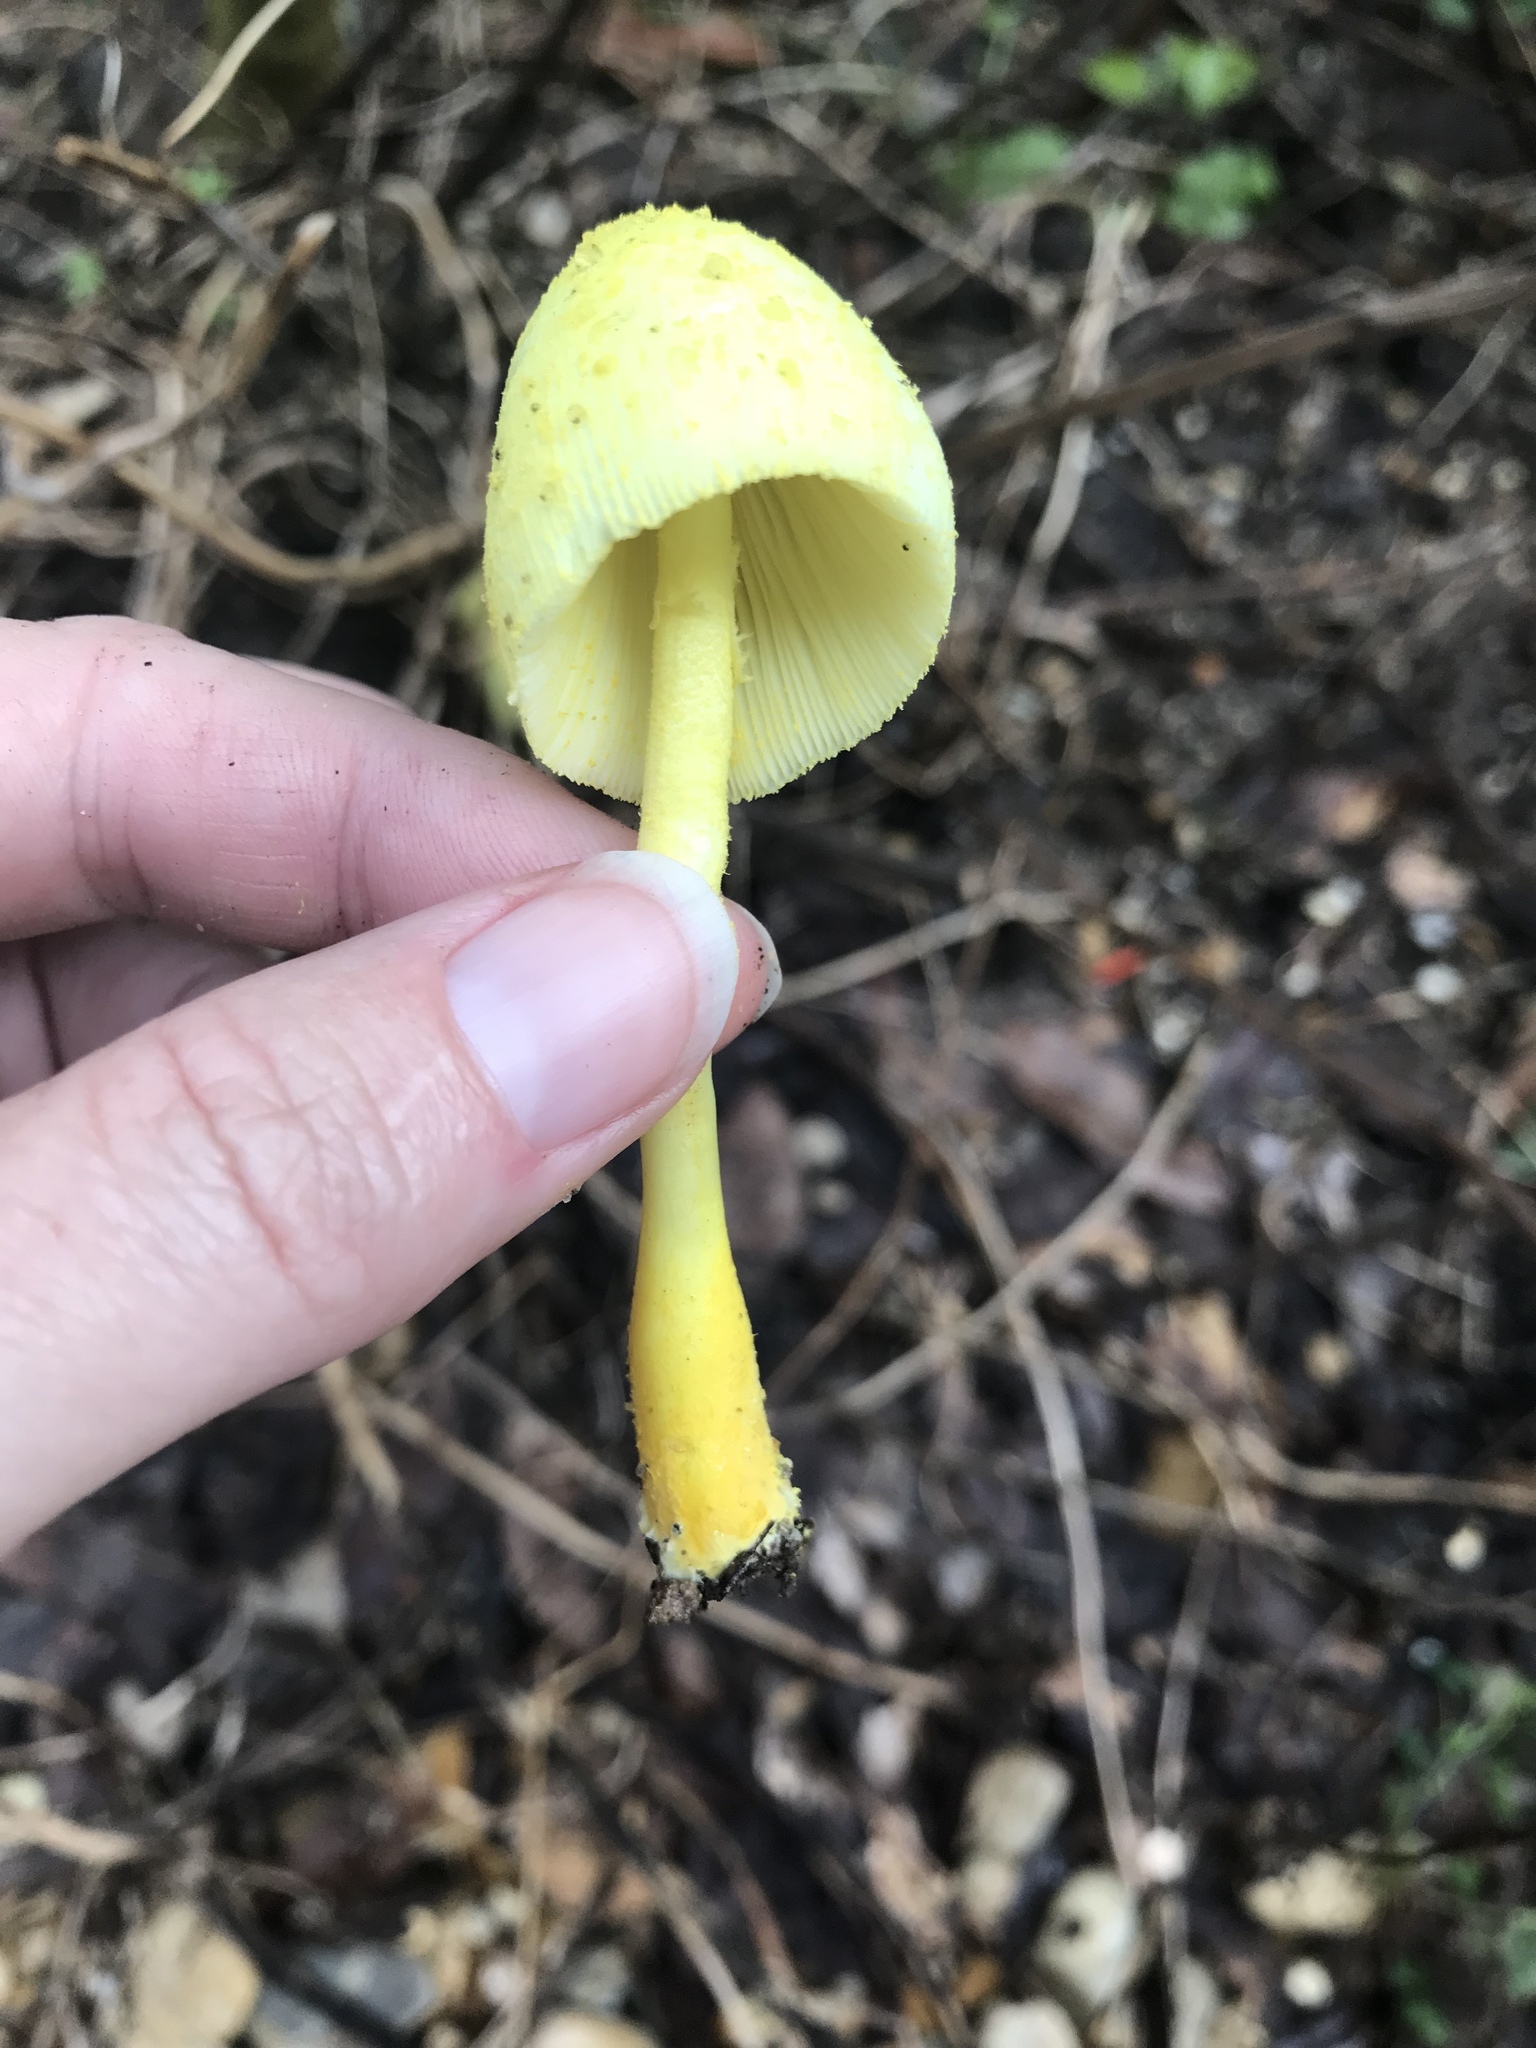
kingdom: Fungi
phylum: Basidiomycota
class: Agaricomycetes
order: Agaricales
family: Agaricaceae
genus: Leucocoprinus
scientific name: Leucocoprinus birnbaumii
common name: Plantpot dapperling
